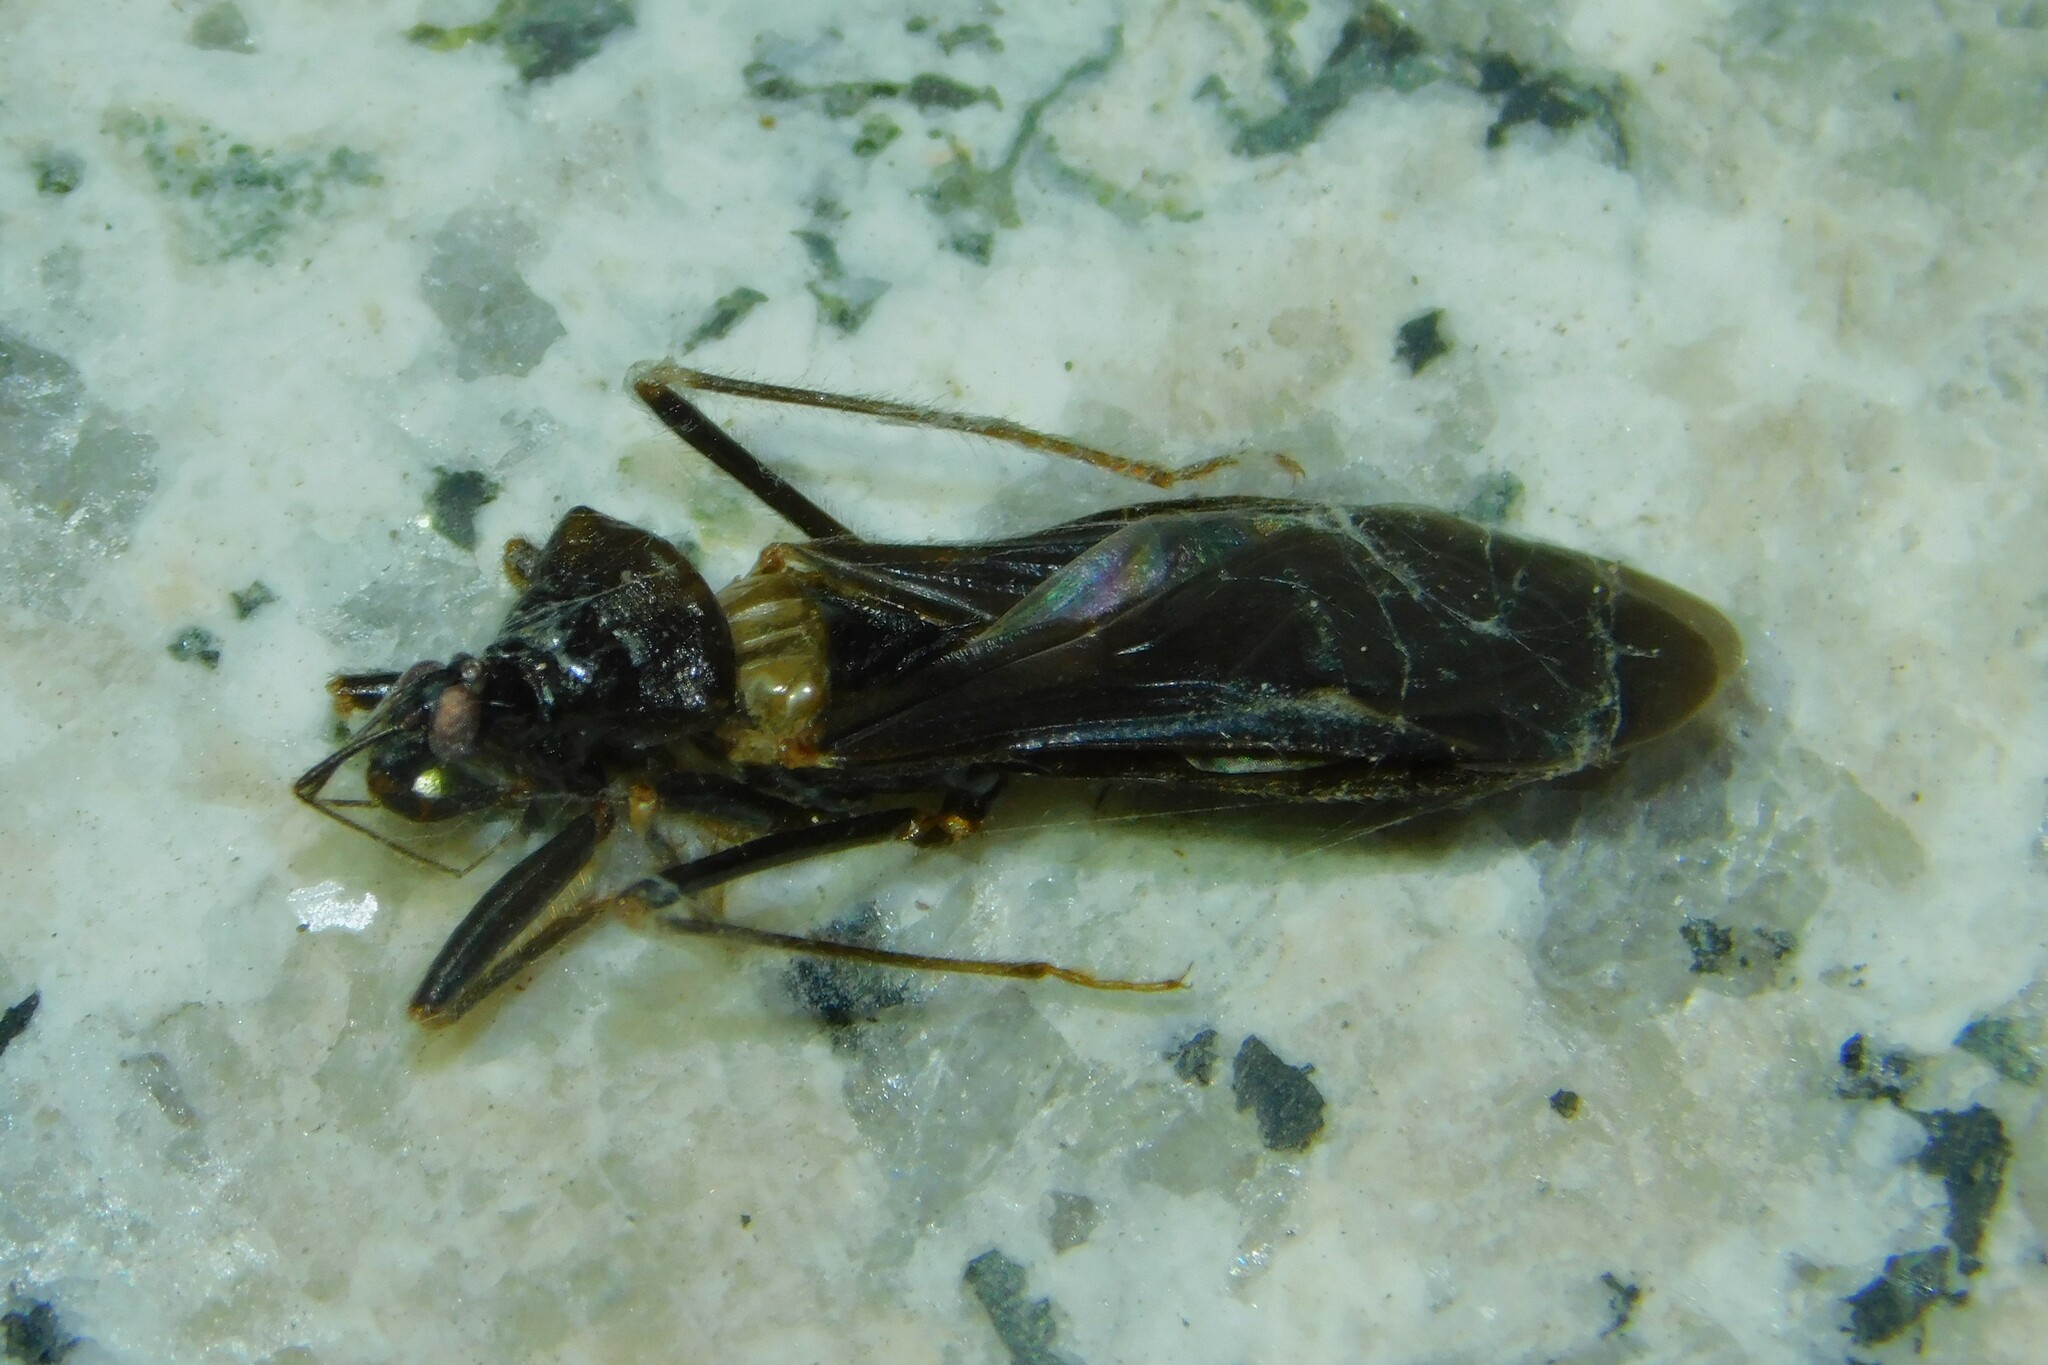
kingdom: Animalia
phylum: Arthropoda
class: Insecta
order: Hemiptera
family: Reduviidae
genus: Reduvius
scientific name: Reduvius personatus
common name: Masked hunter
